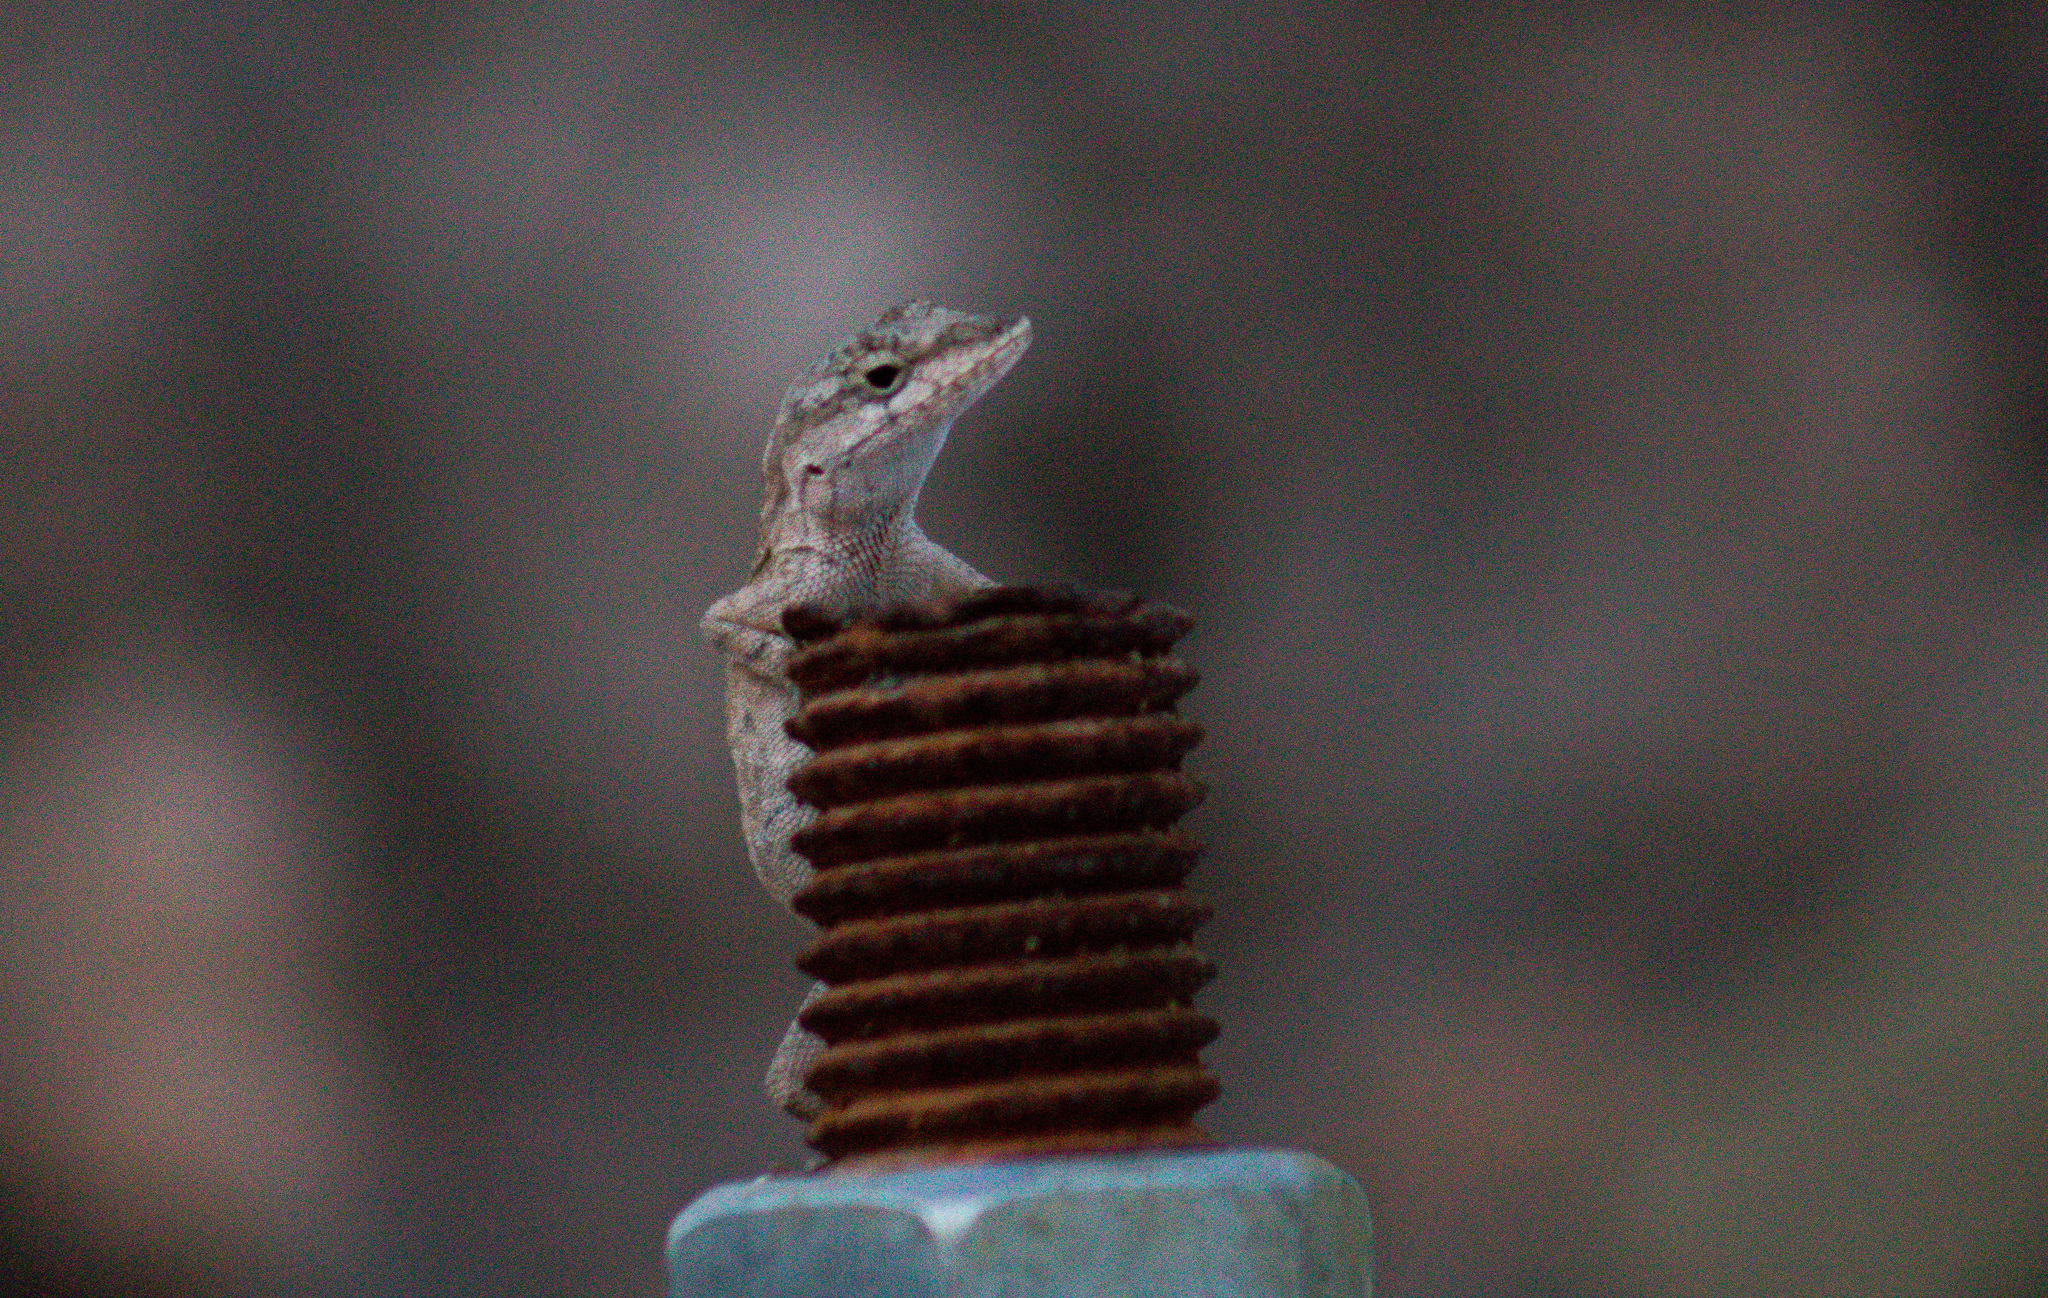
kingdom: Animalia
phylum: Chordata
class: Squamata
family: Dactyloidae
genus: Anolis
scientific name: Anolis nebulosus
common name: Clouded anole
